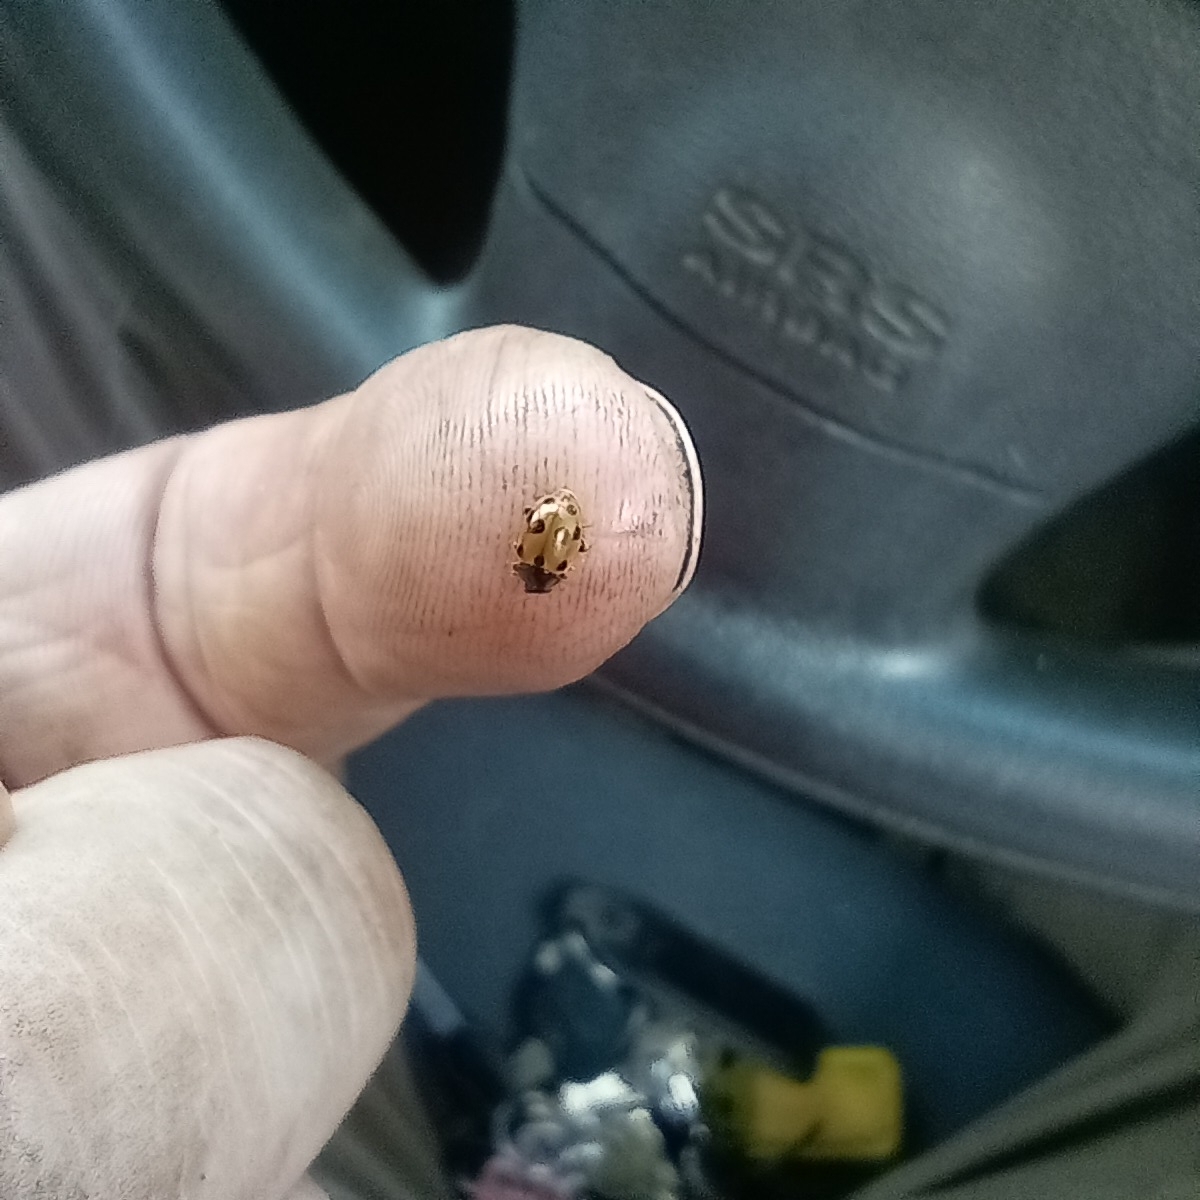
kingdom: Animalia
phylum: Arthropoda
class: Insecta
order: Coleoptera
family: Coccinellidae
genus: Hippodamia
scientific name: Hippodamia variegata
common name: Ladybird beetle
